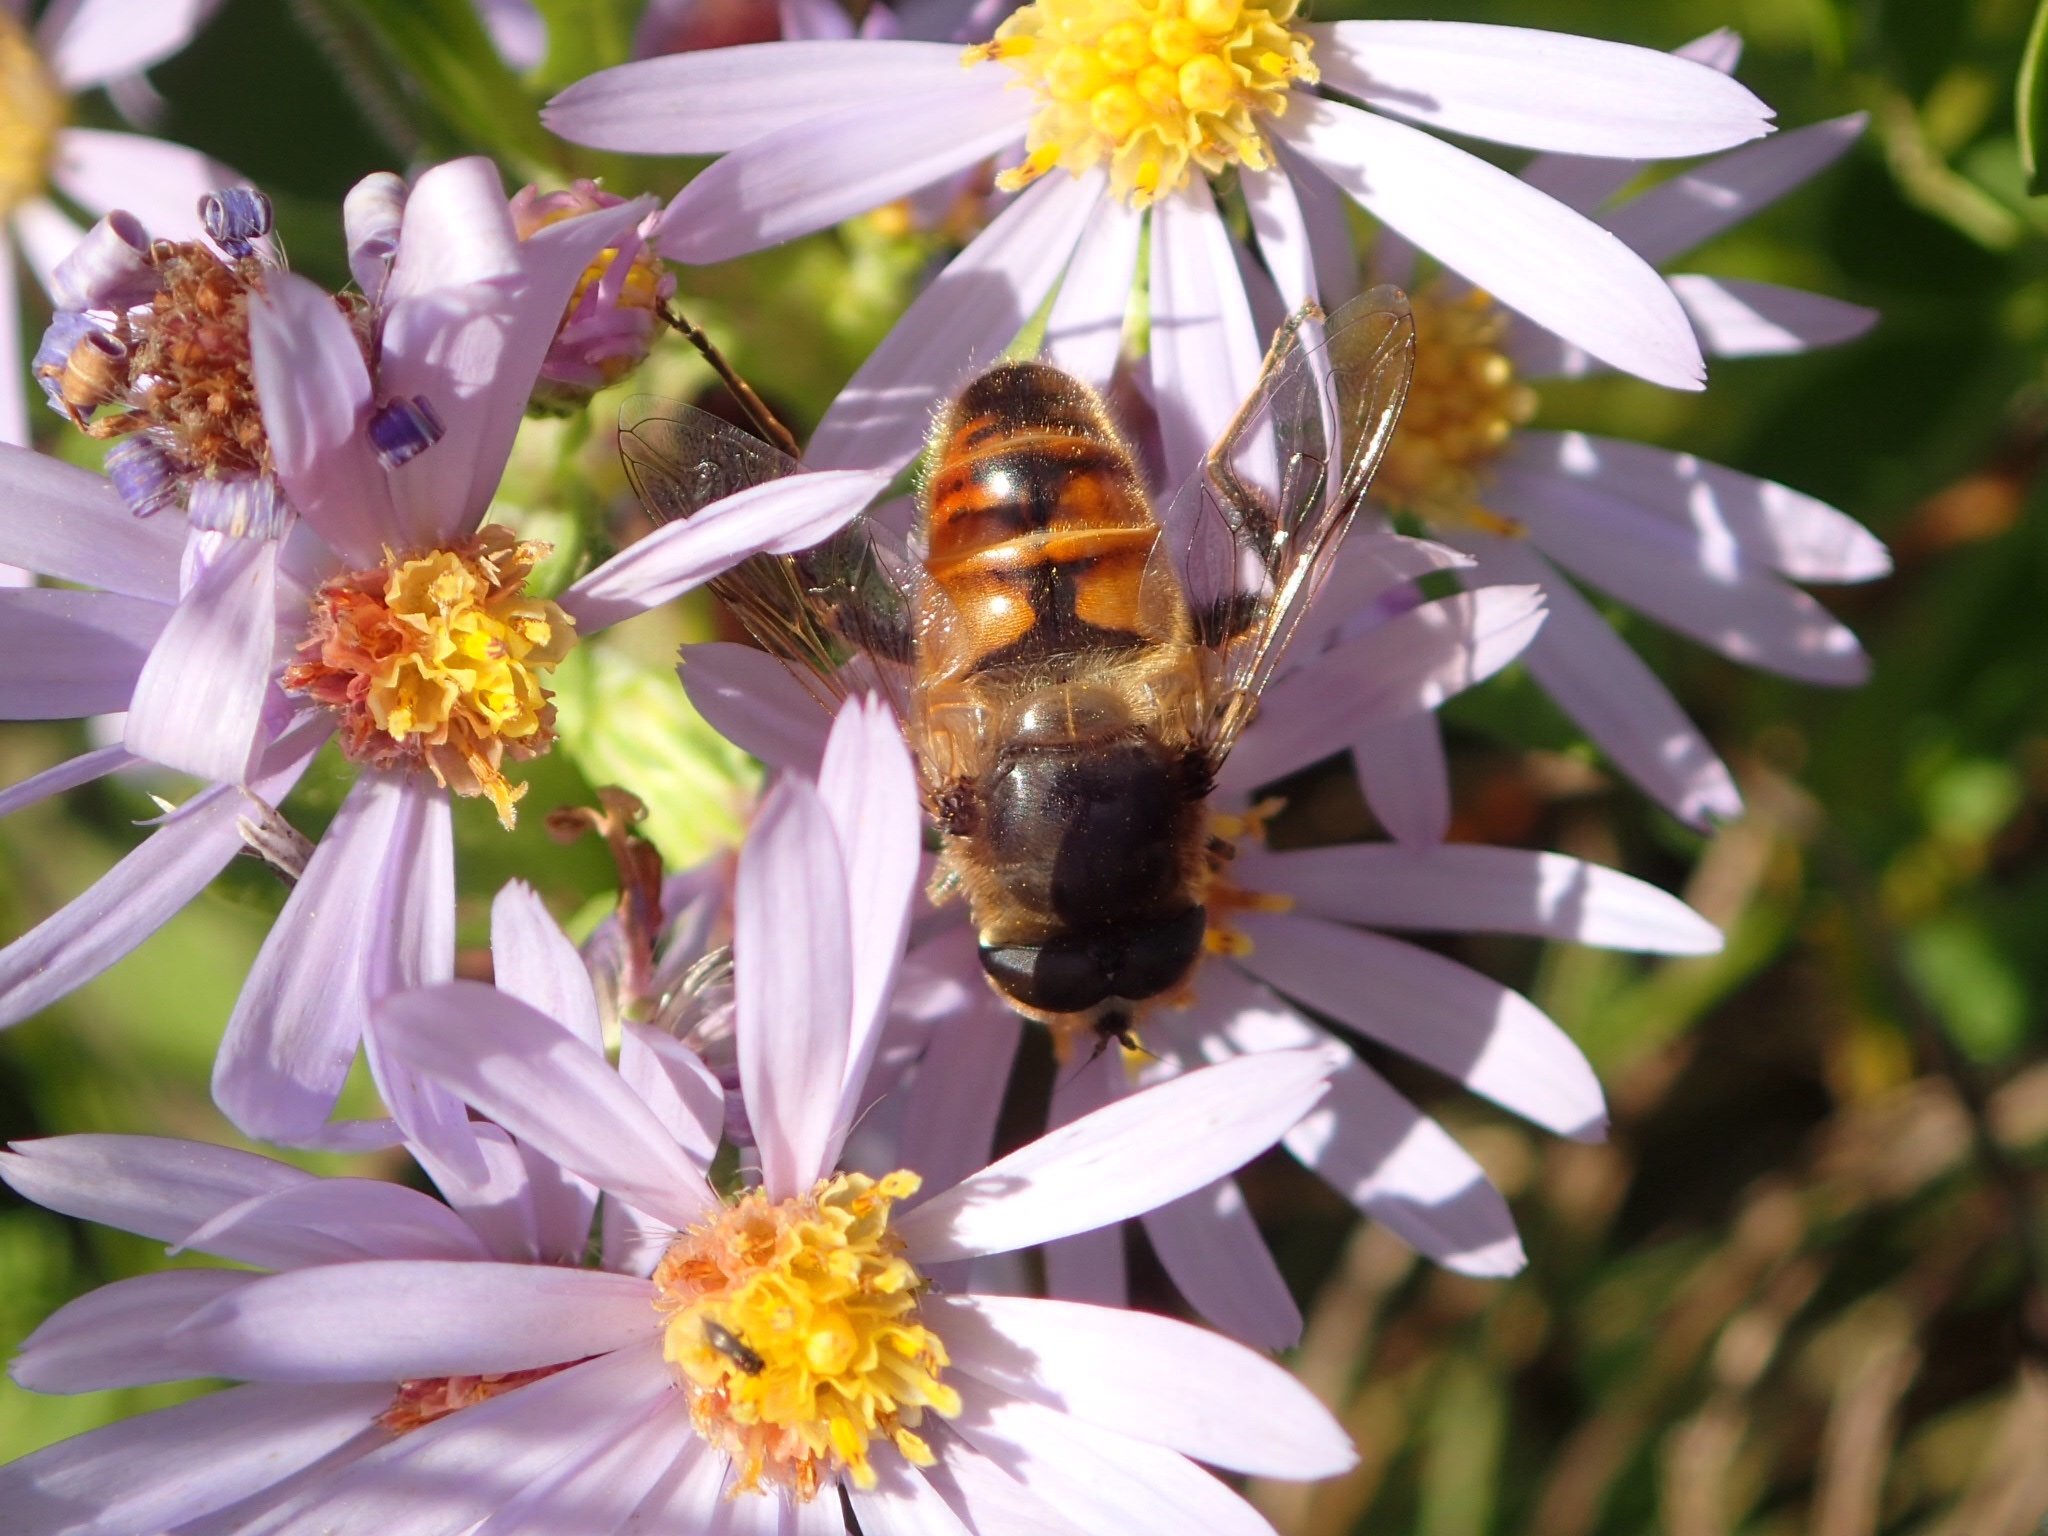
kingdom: Animalia
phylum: Arthropoda
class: Insecta
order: Diptera
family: Syrphidae
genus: Eristalis
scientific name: Eristalis tenax
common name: Drone fly
